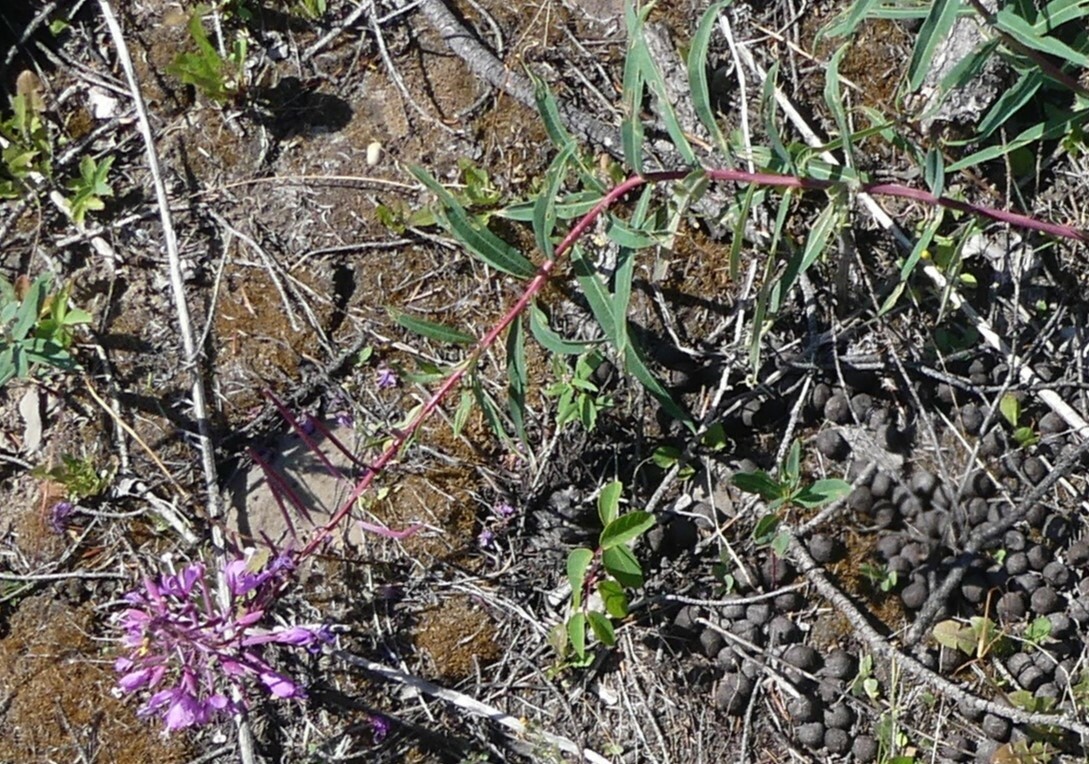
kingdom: Plantae
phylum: Tracheophyta
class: Magnoliopsida
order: Myrtales
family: Onagraceae
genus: Chamaenerion
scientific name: Chamaenerion angustifolium
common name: Fireweed
